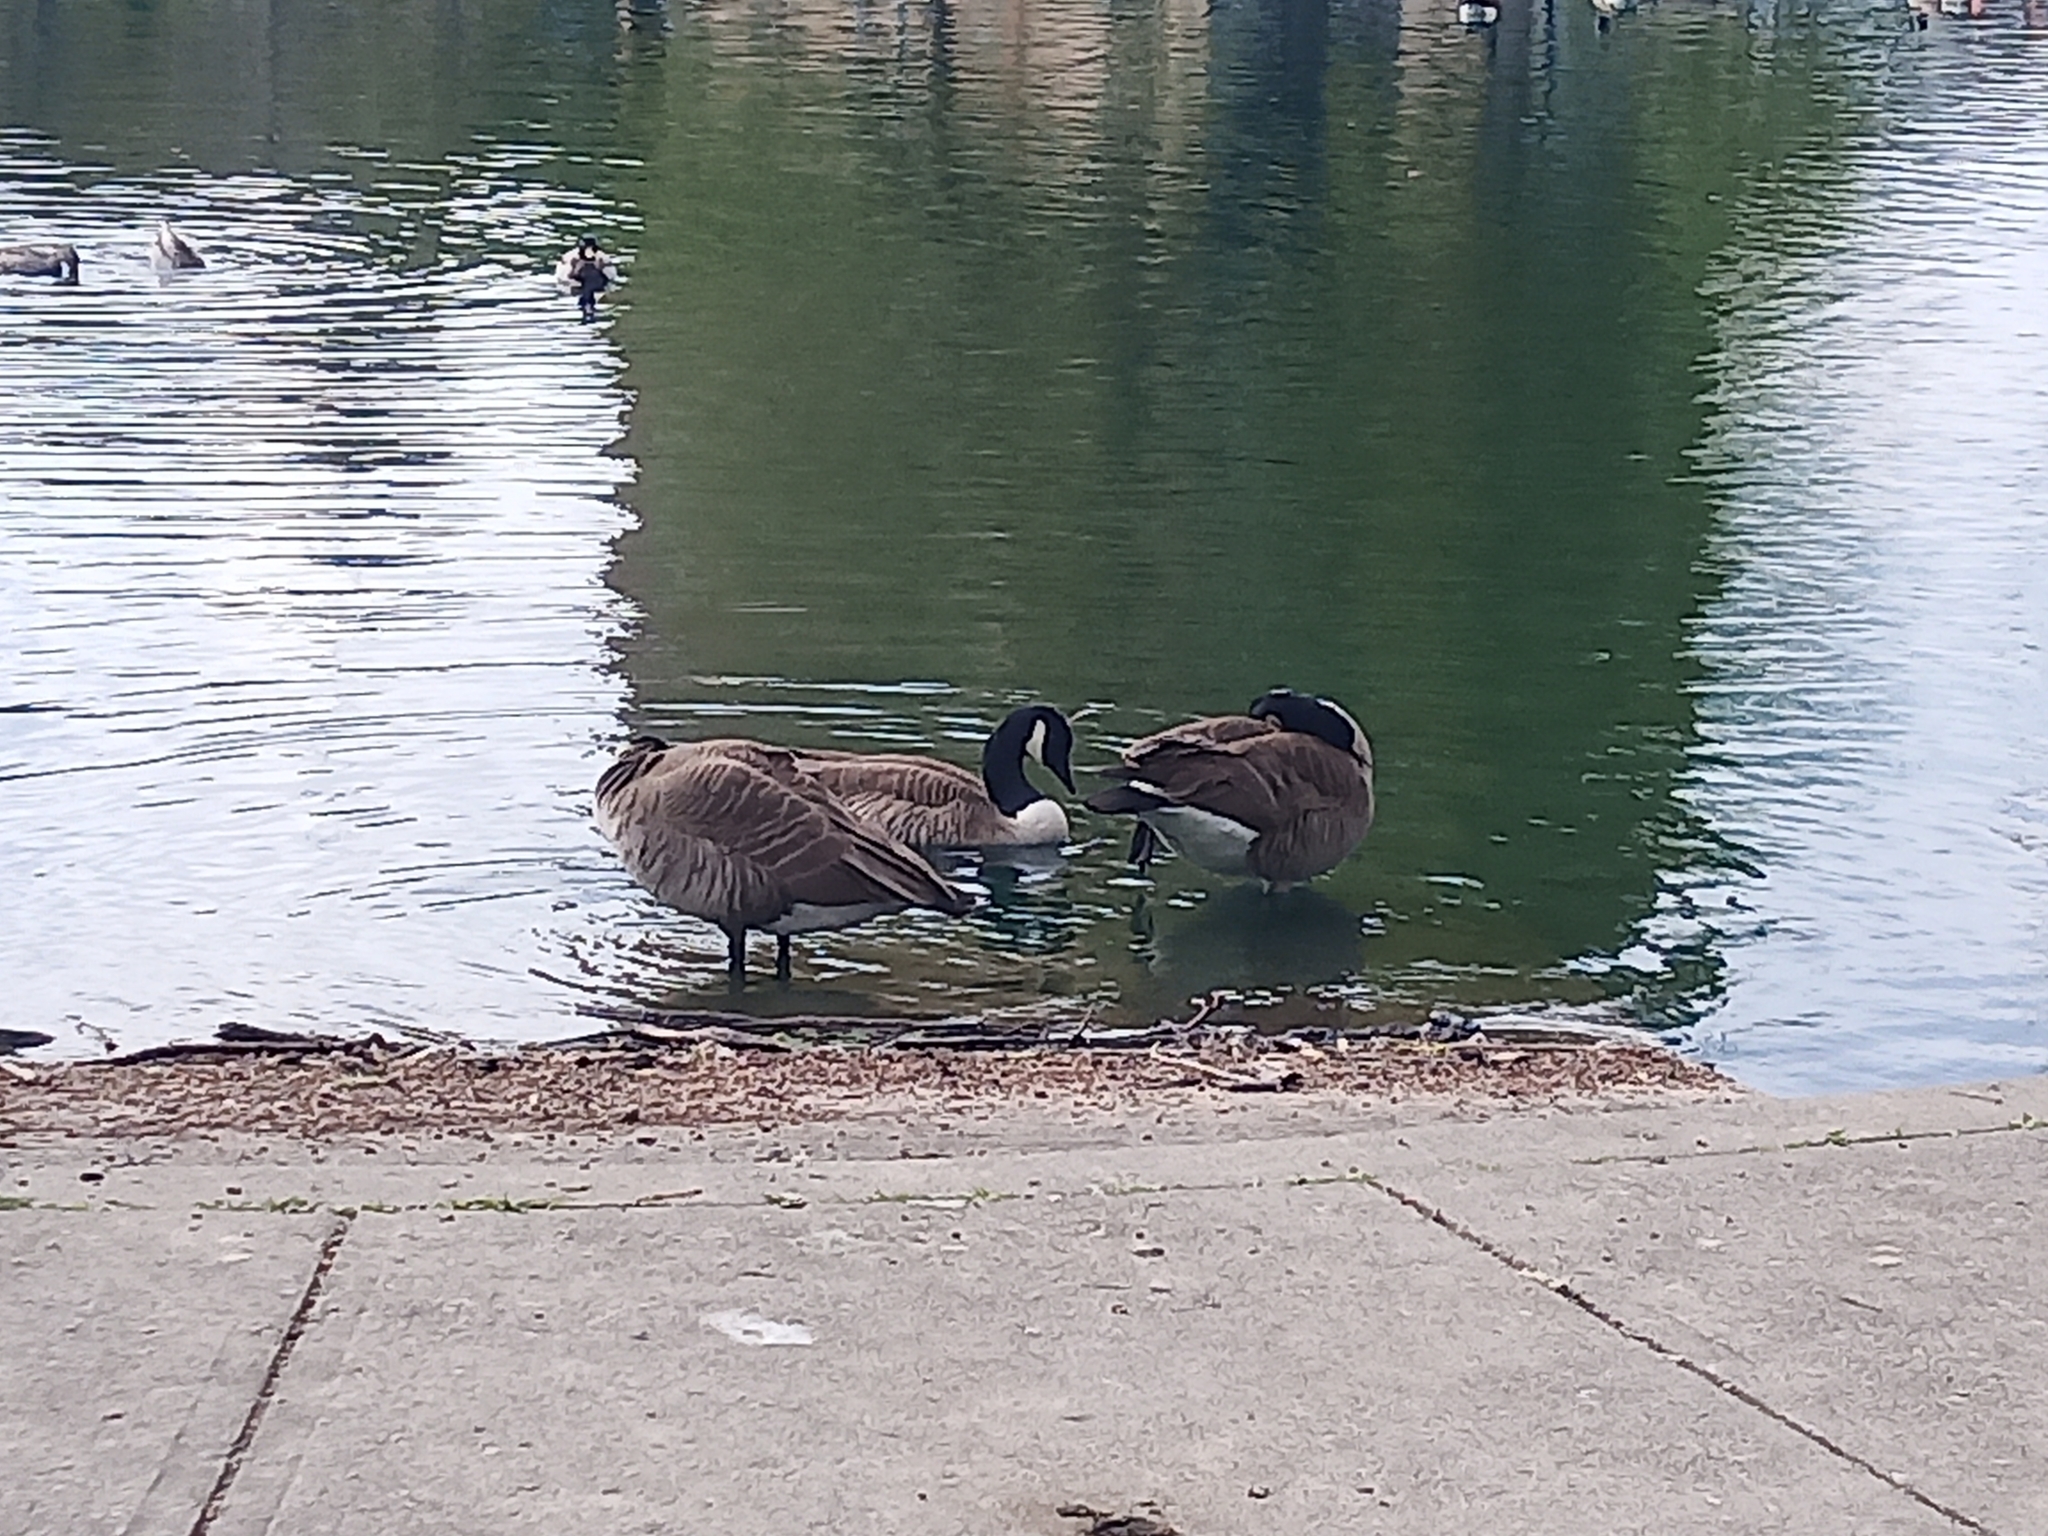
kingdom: Animalia
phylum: Chordata
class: Aves
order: Anseriformes
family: Anatidae
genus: Branta
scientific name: Branta canadensis
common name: Canada goose
